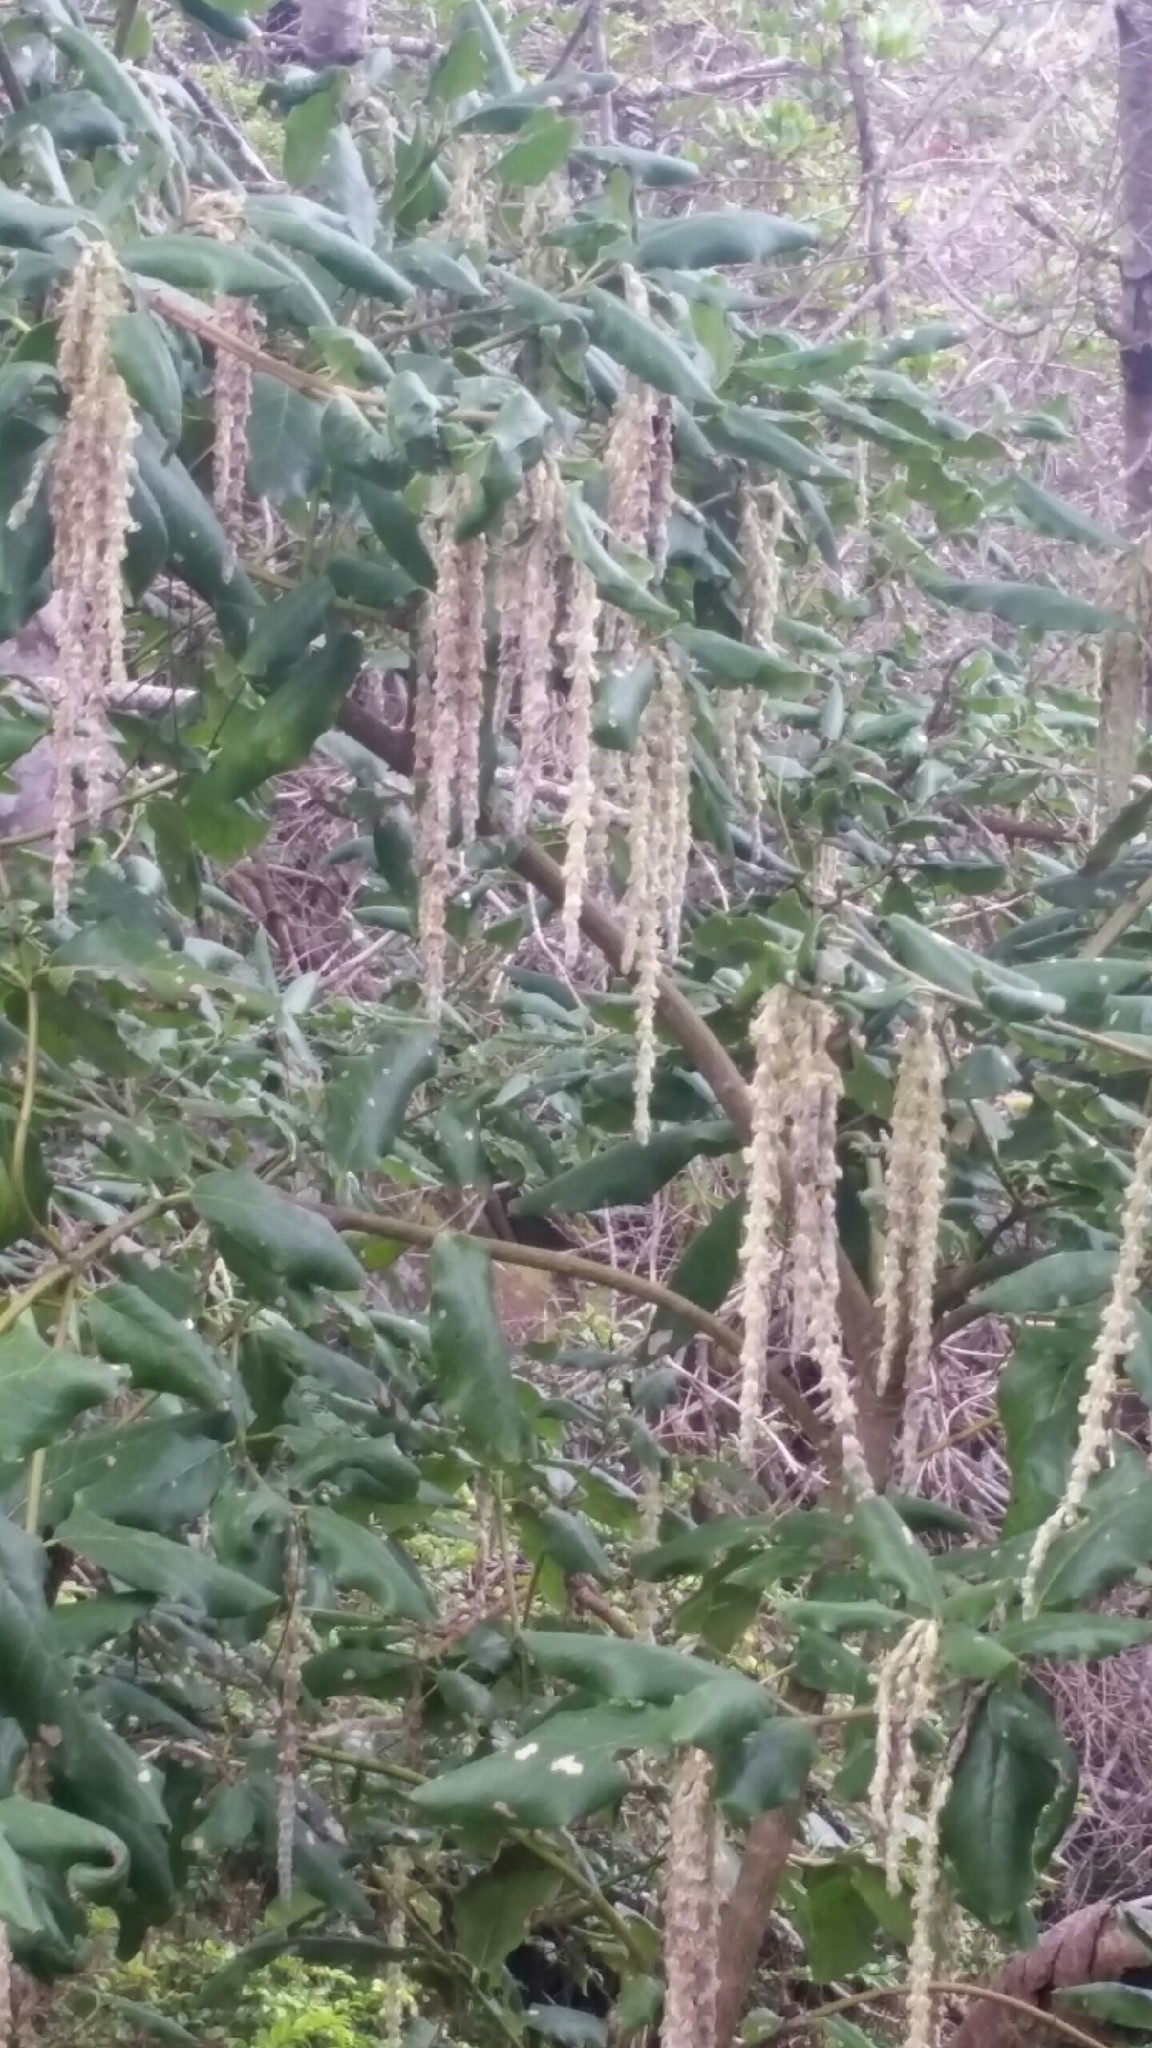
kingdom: Plantae
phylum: Tracheophyta
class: Magnoliopsida
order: Garryales
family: Garryaceae
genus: Garrya
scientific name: Garrya elliptica
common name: Silk-tassel
